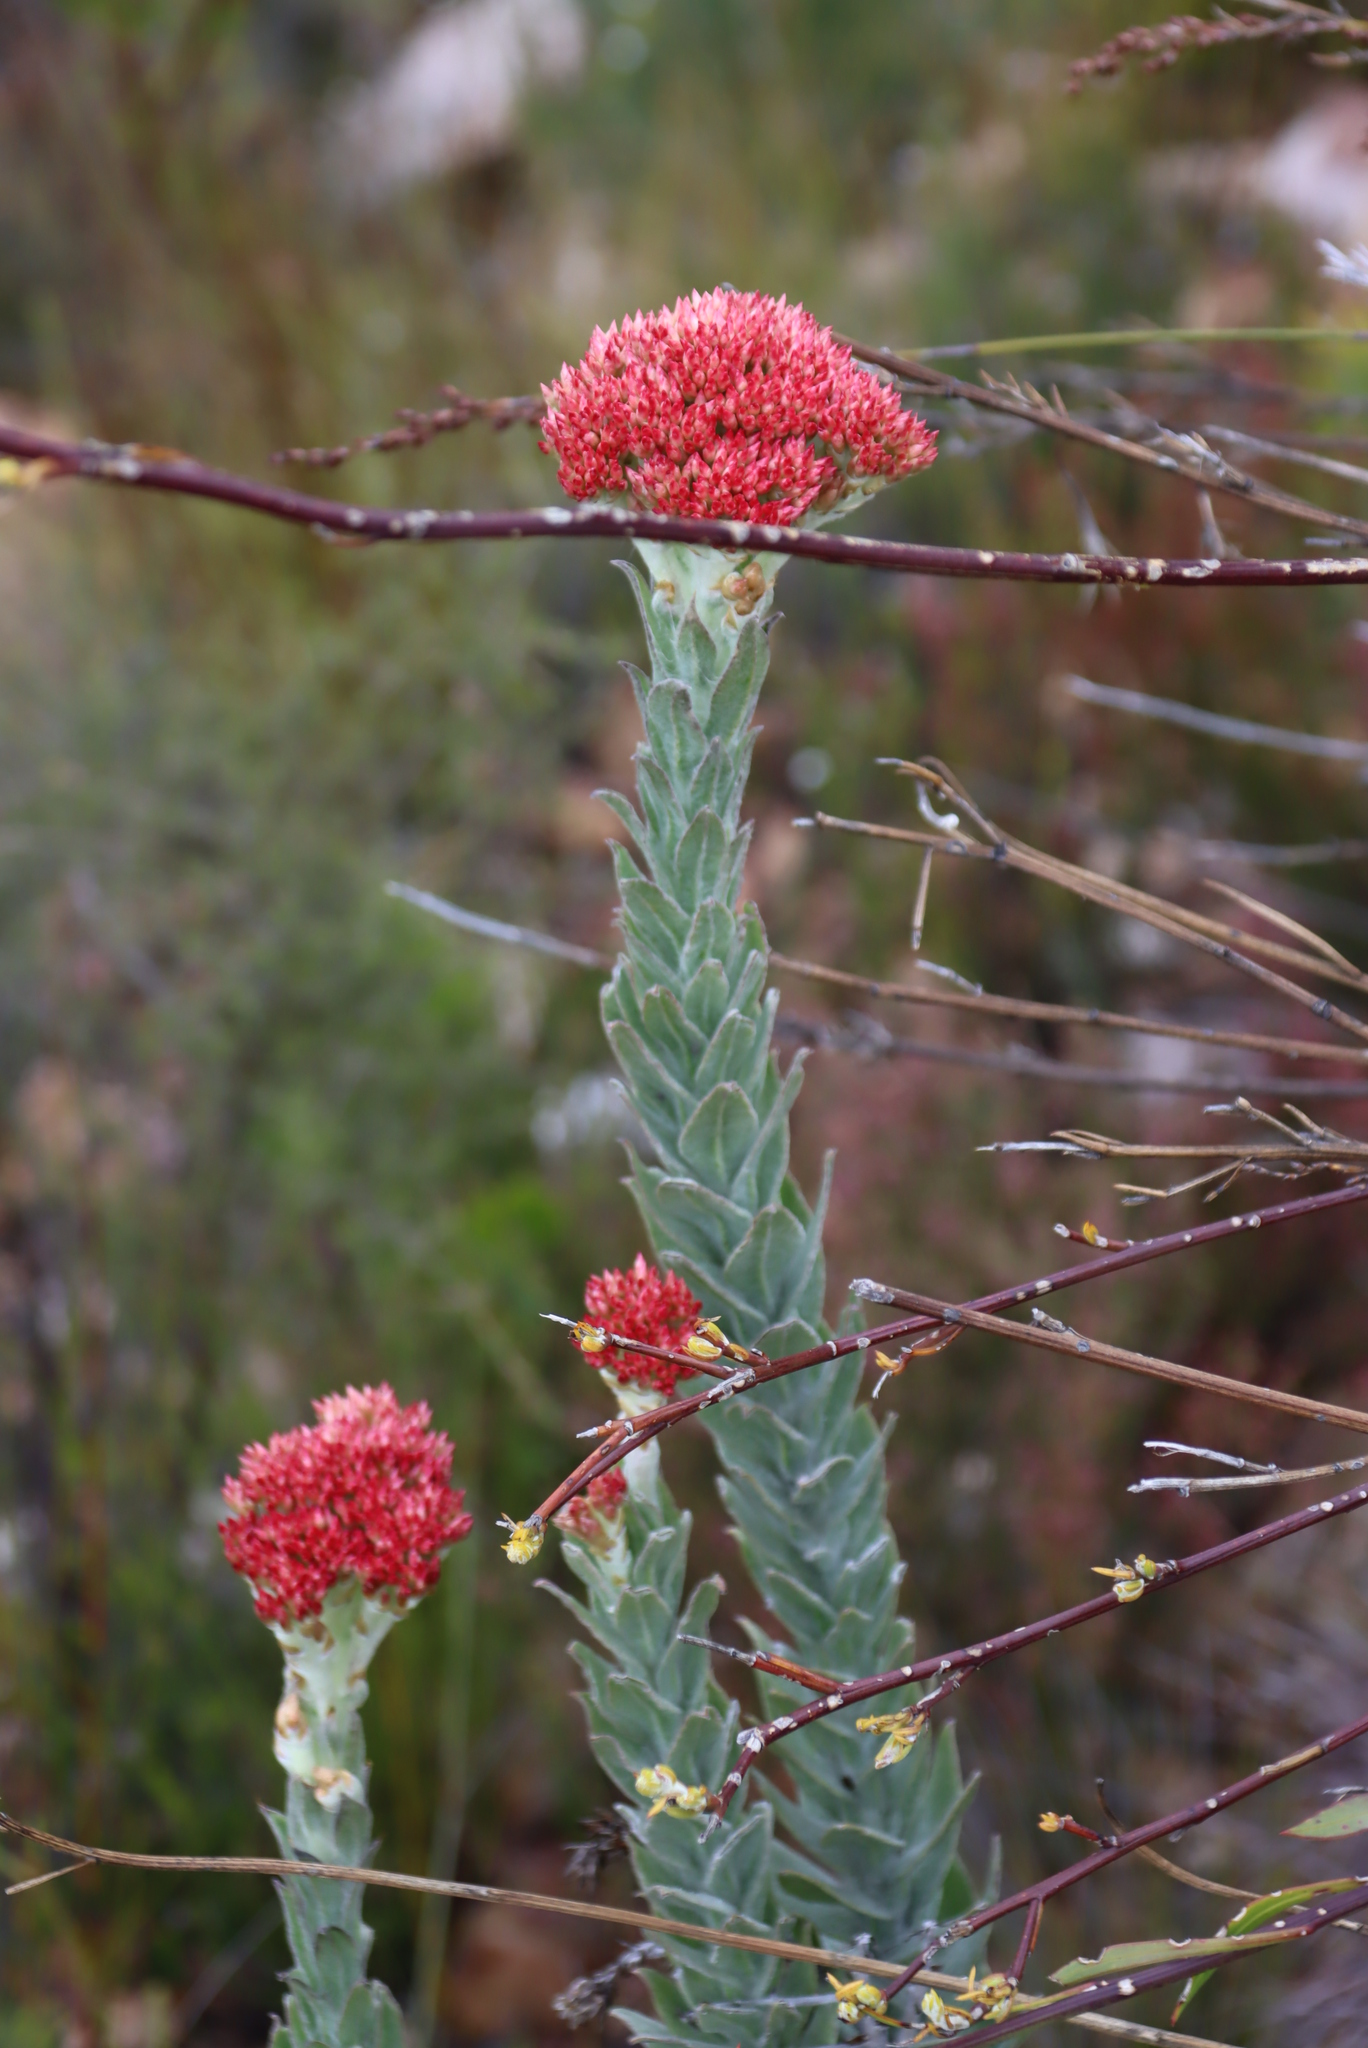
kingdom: Plantae
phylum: Tracheophyta
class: Magnoliopsida
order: Asterales
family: Asteraceae
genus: Syncarpha
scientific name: Syncarpha milleflora
